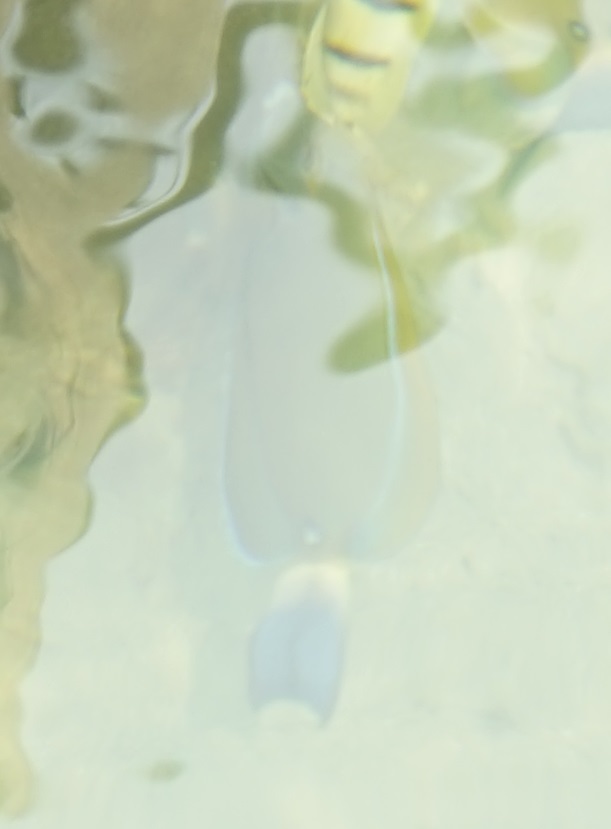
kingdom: Animalia
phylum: Chordata
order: Perciformes
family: Acanthuridae
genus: Acanthurus
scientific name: Acanthurus dussumieri
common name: Dussumier's surgeonfish
